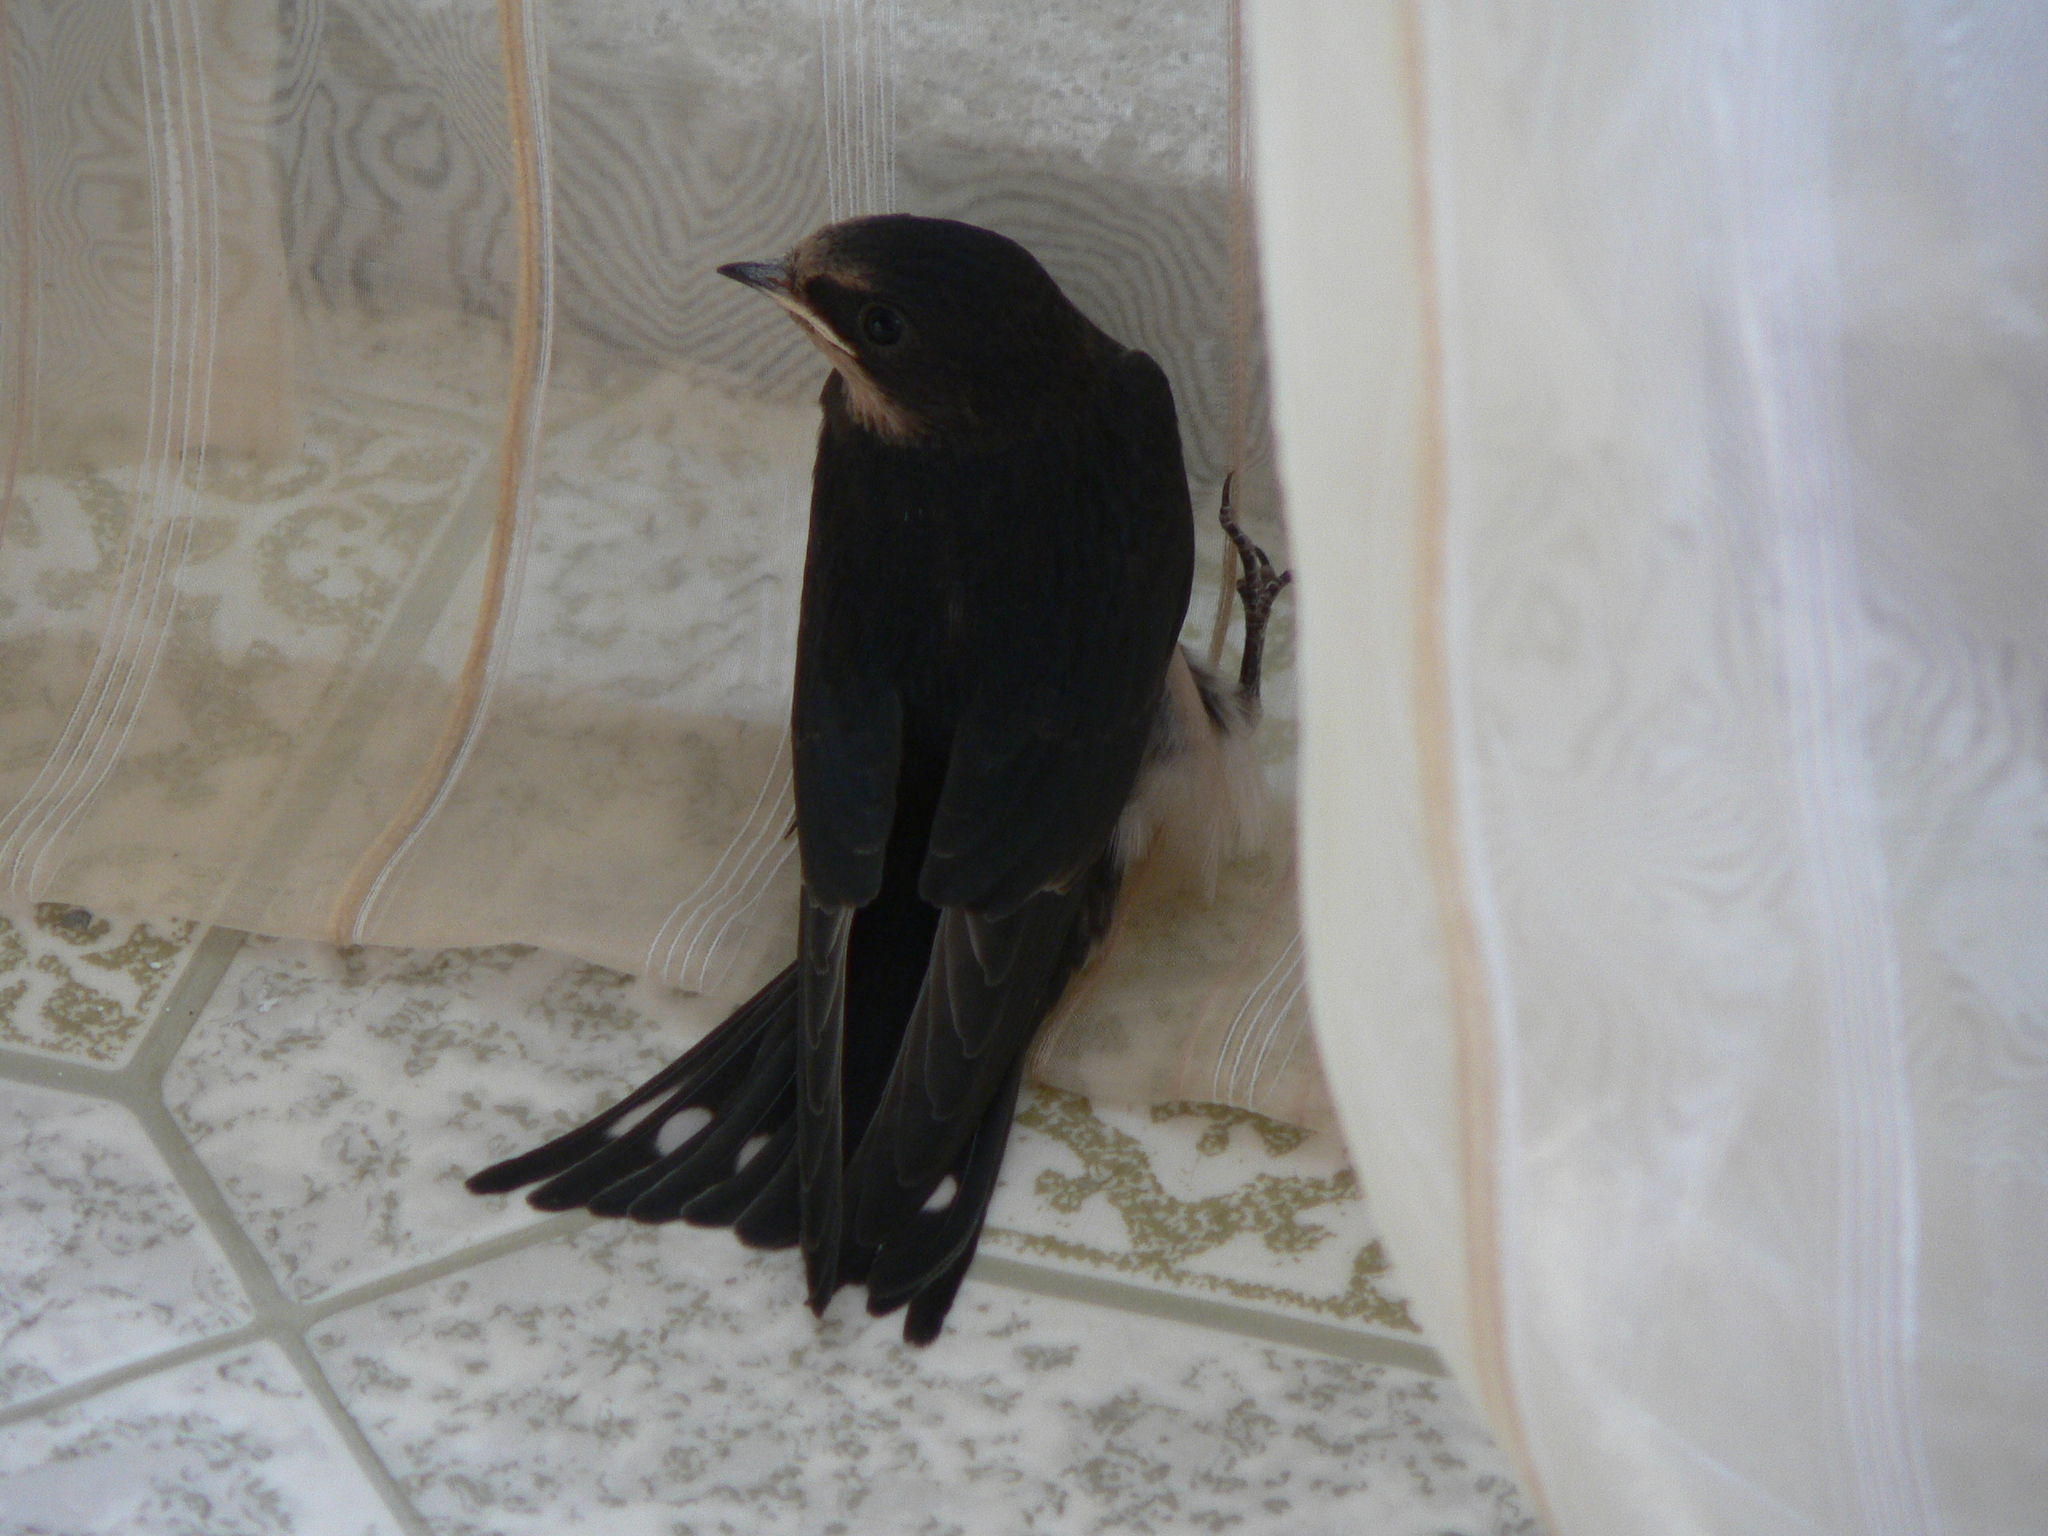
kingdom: Animalia
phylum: Chordata
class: Aves
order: Passeriformes
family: Hirundinidae
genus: Hirundo
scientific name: Hirundo rustica
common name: Barn swallow
